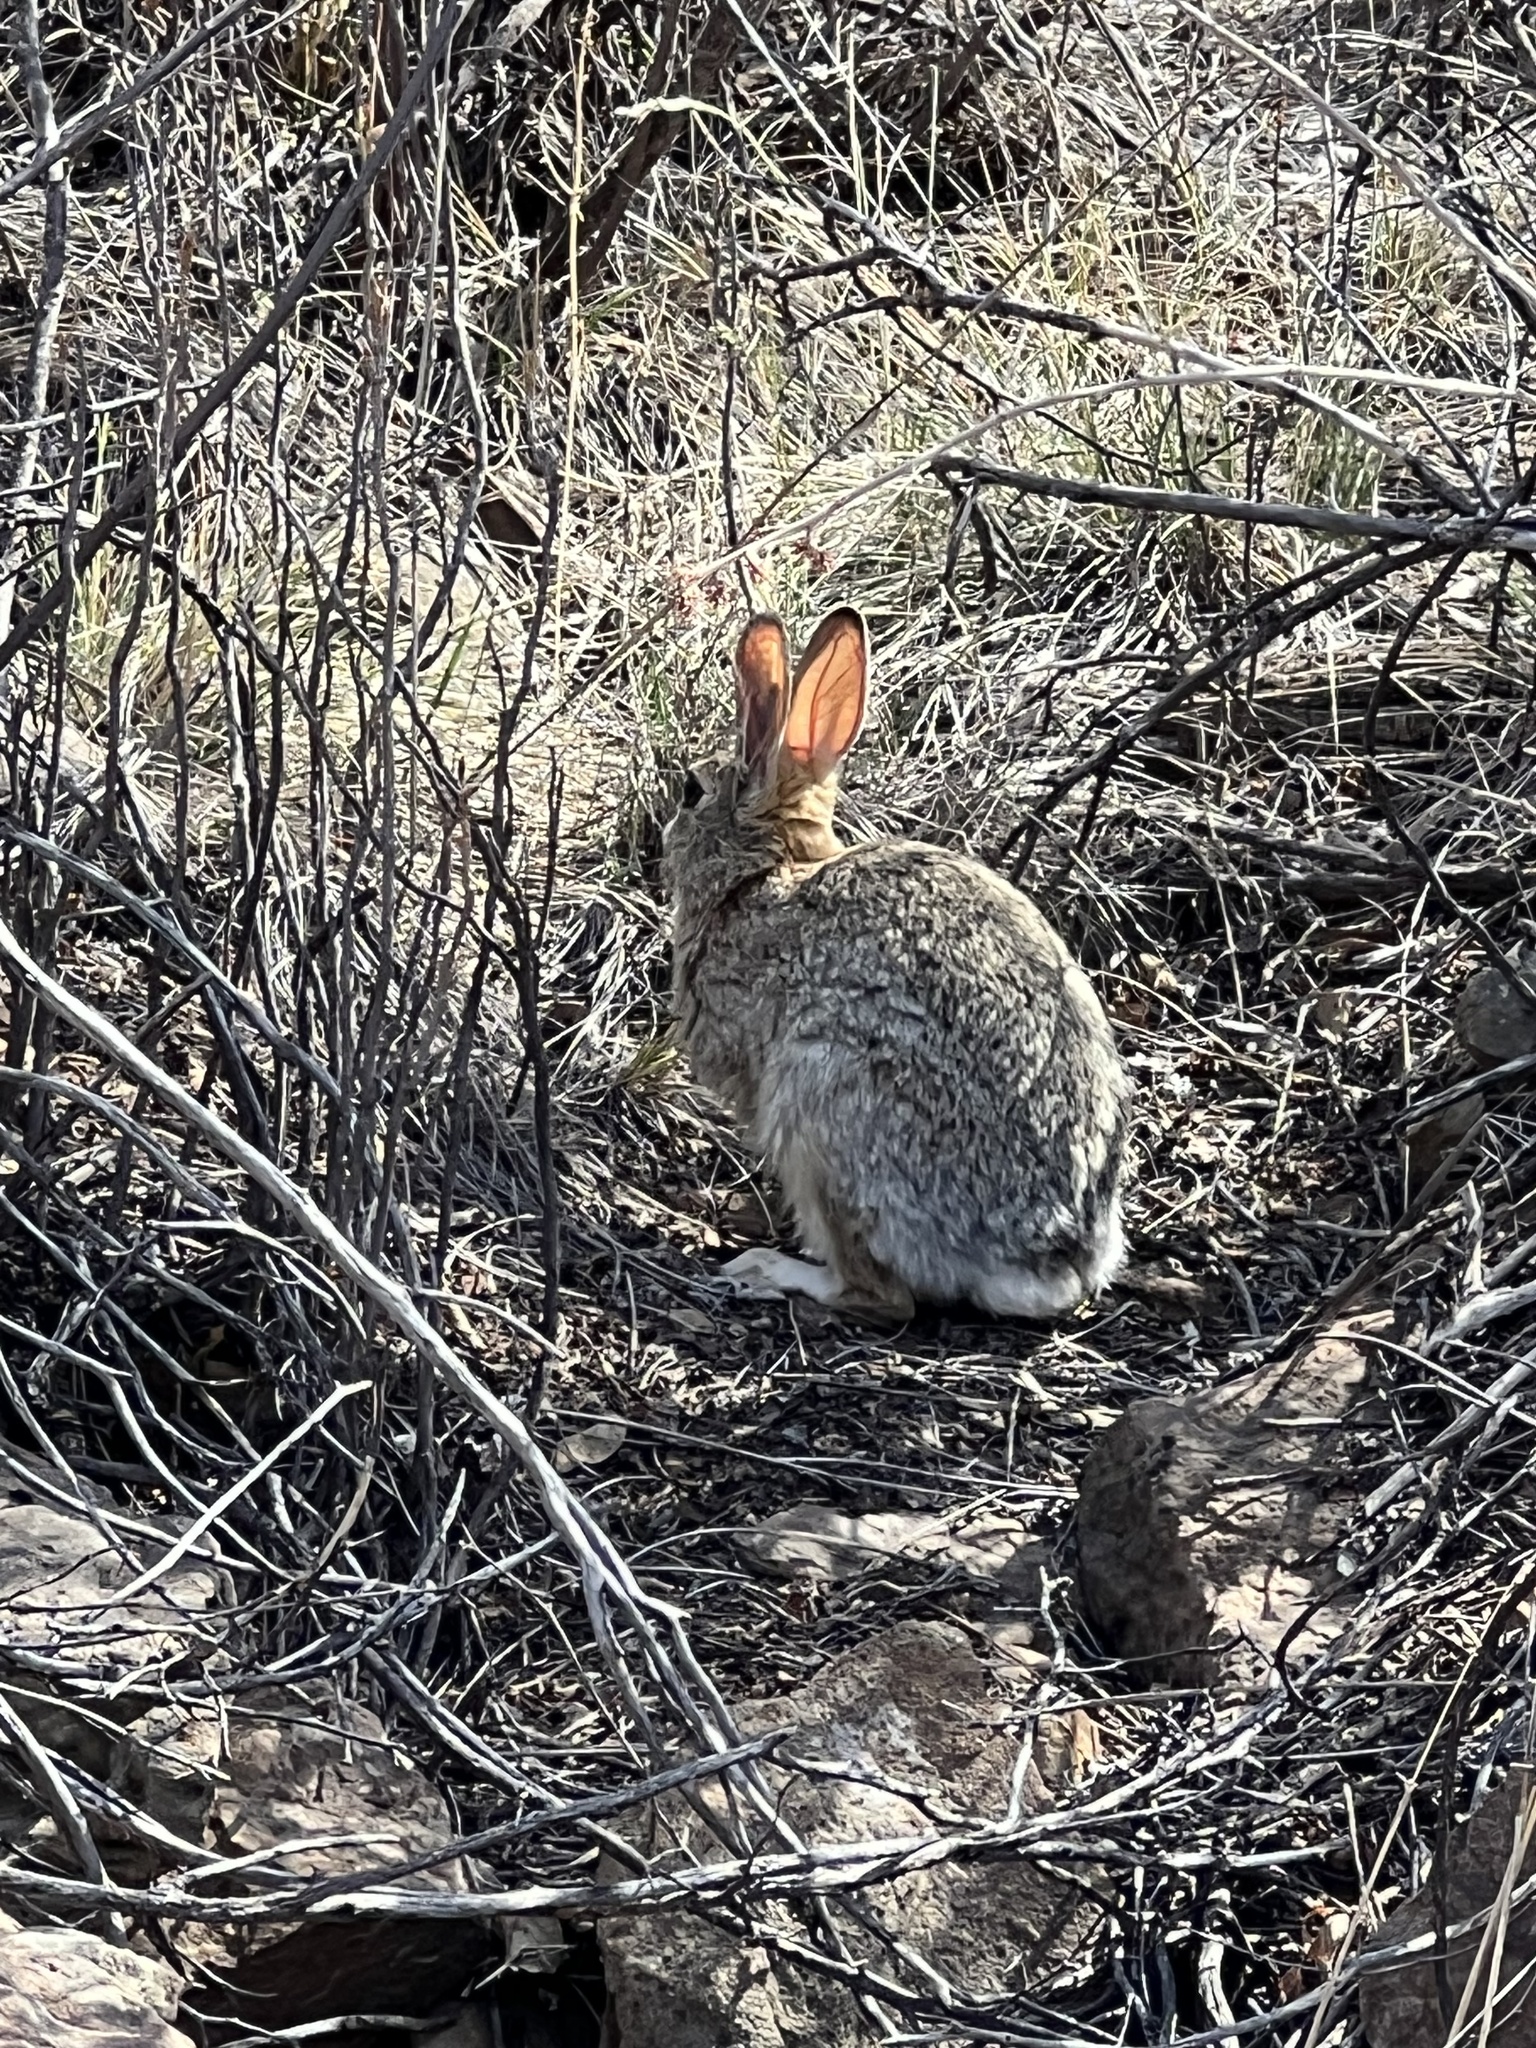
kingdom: Animalia
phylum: Chordata
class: Mammalia
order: Lagomorpha
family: Leporidae
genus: Sylvilagus
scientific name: Sylvilagus audubonii
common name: Desert cottontail
